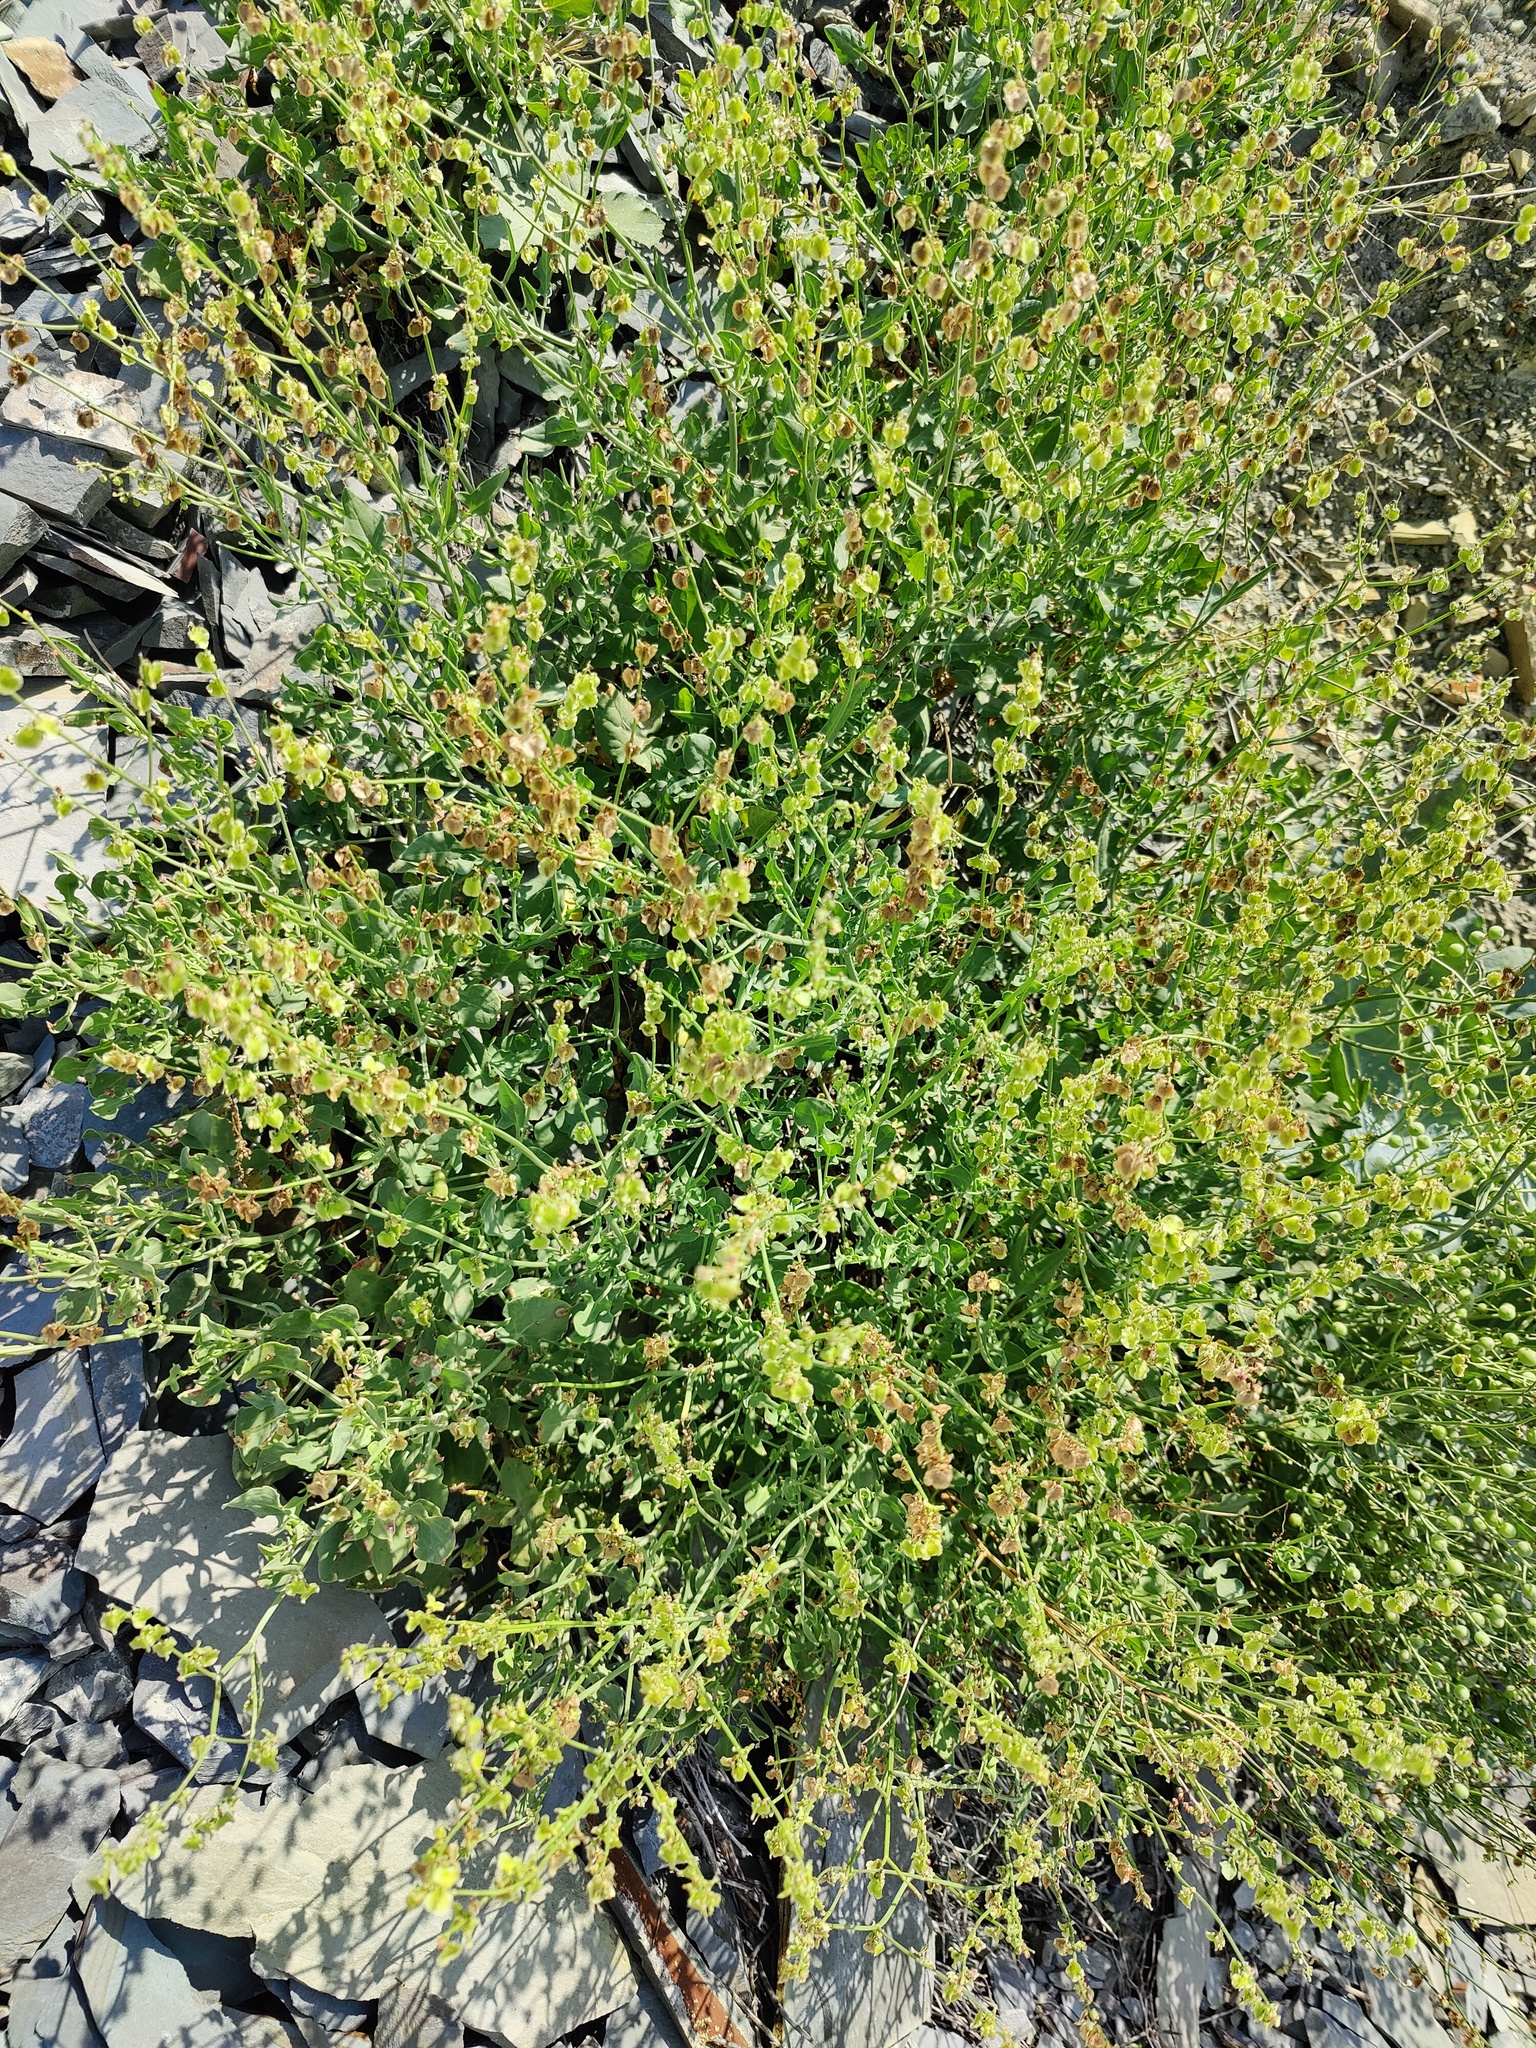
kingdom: Plantae
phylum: Tracheophyta
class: Magnoliopsida
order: Caryophyllales
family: Polygonaceae
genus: Rumex
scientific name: Rumex scutatus
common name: French sorrel
